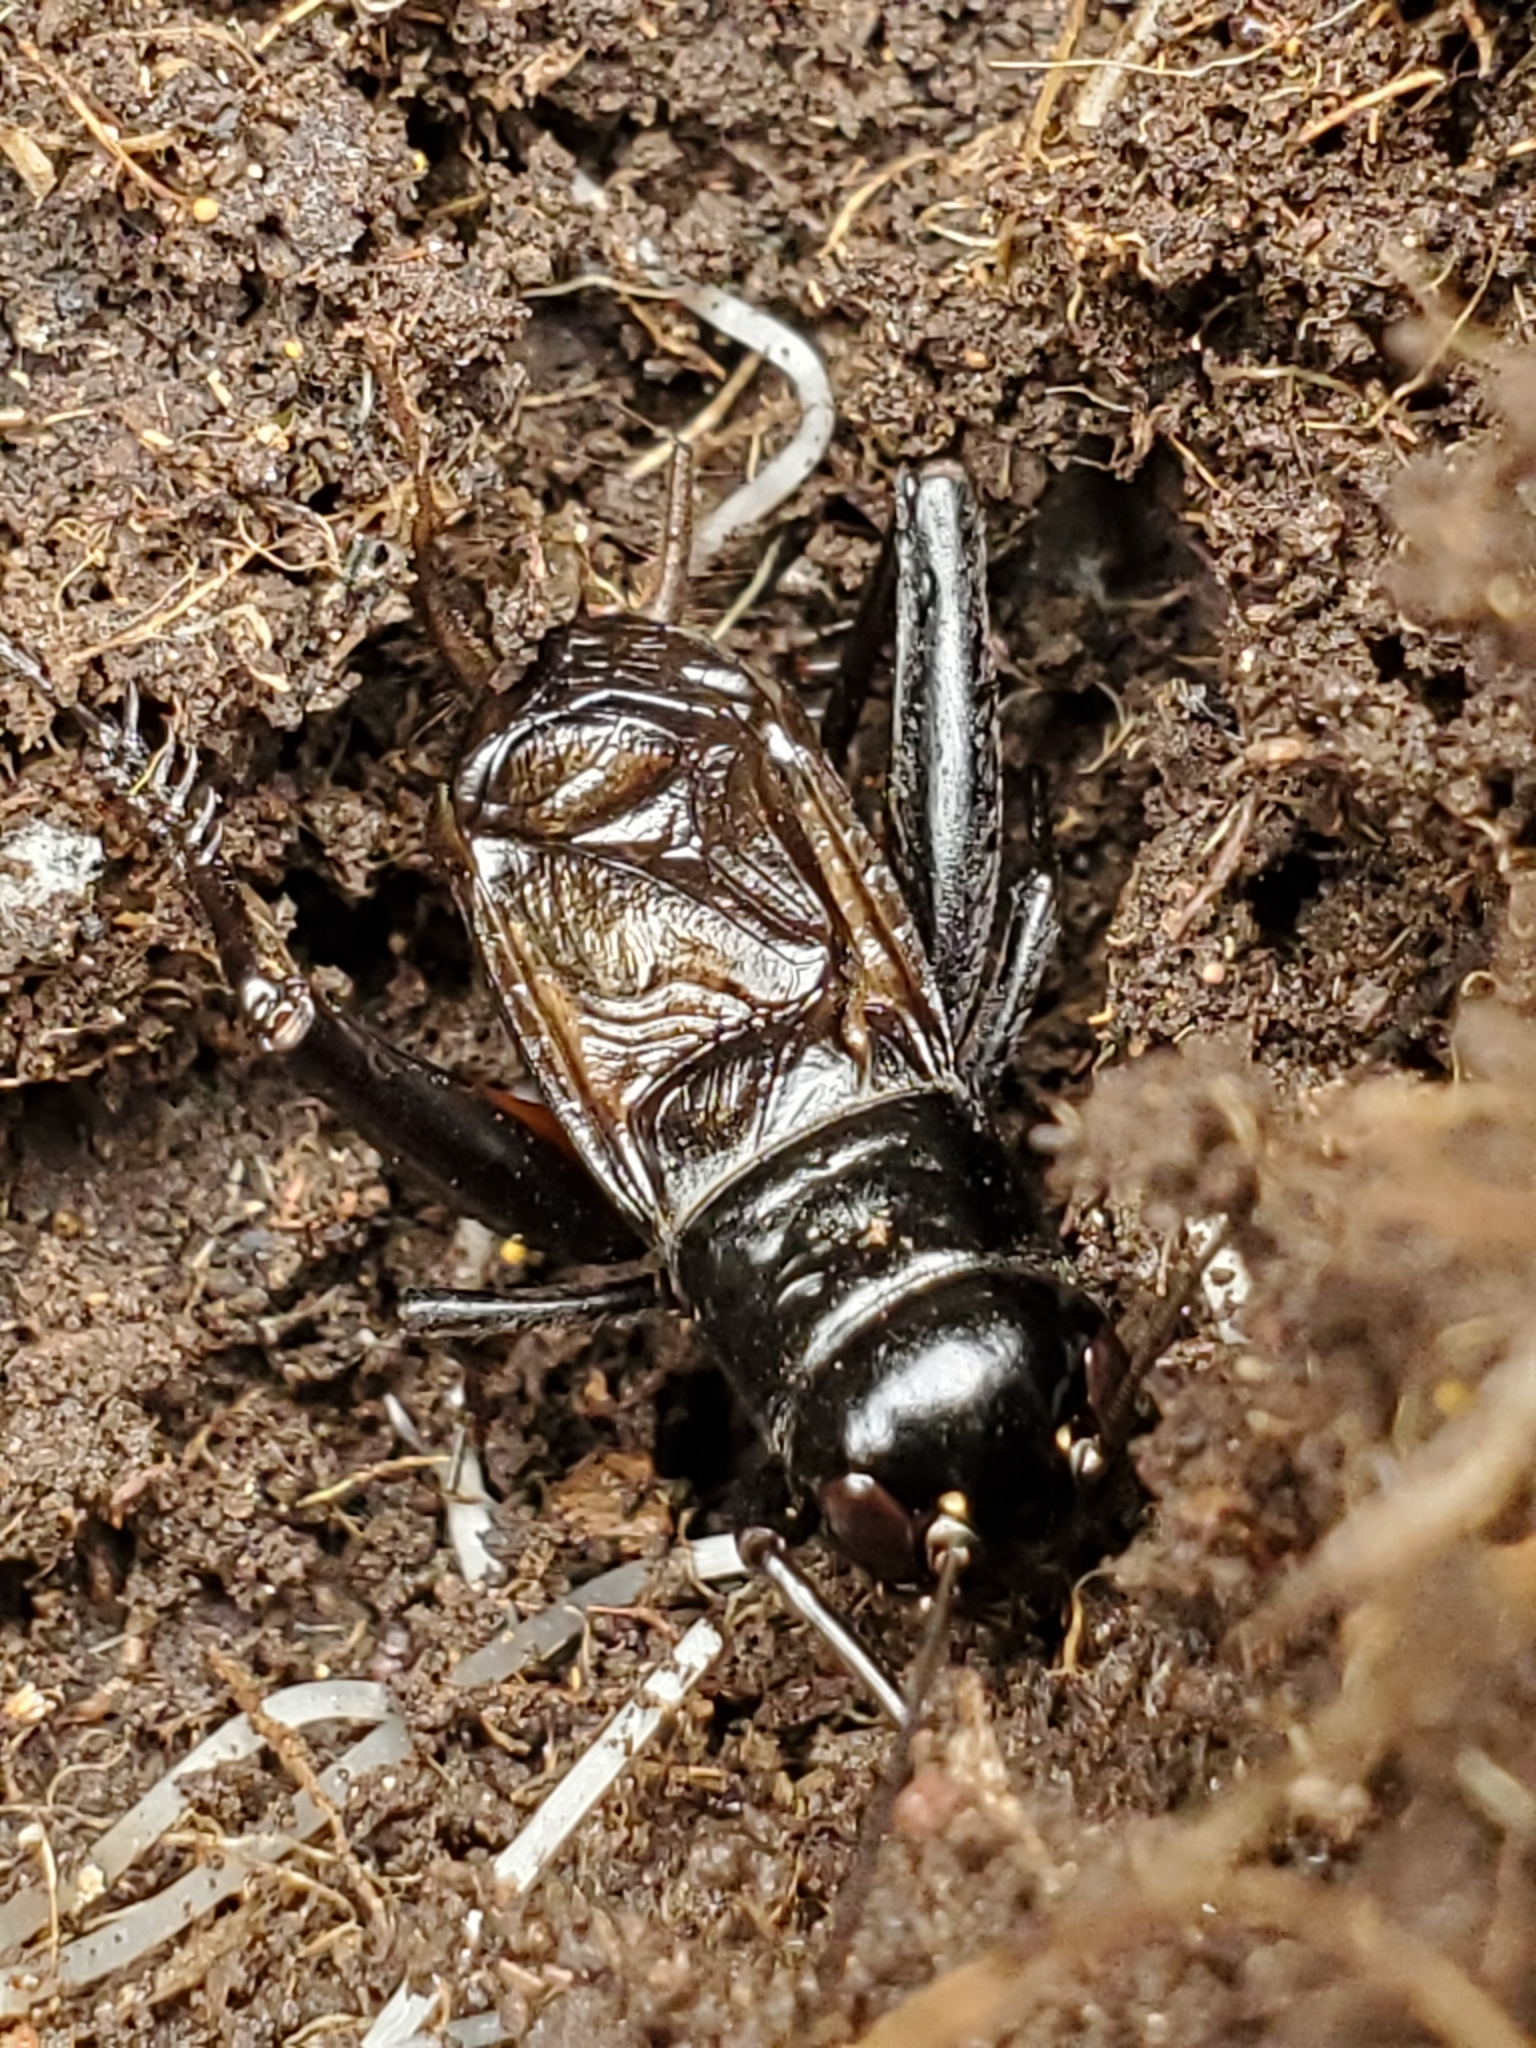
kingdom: Animalia
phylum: Arthropoda
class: Insecta
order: Orthoptera
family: Gryllidae
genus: Gryllus
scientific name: Gryllus pennsylvanicus
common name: Fall field cricket
